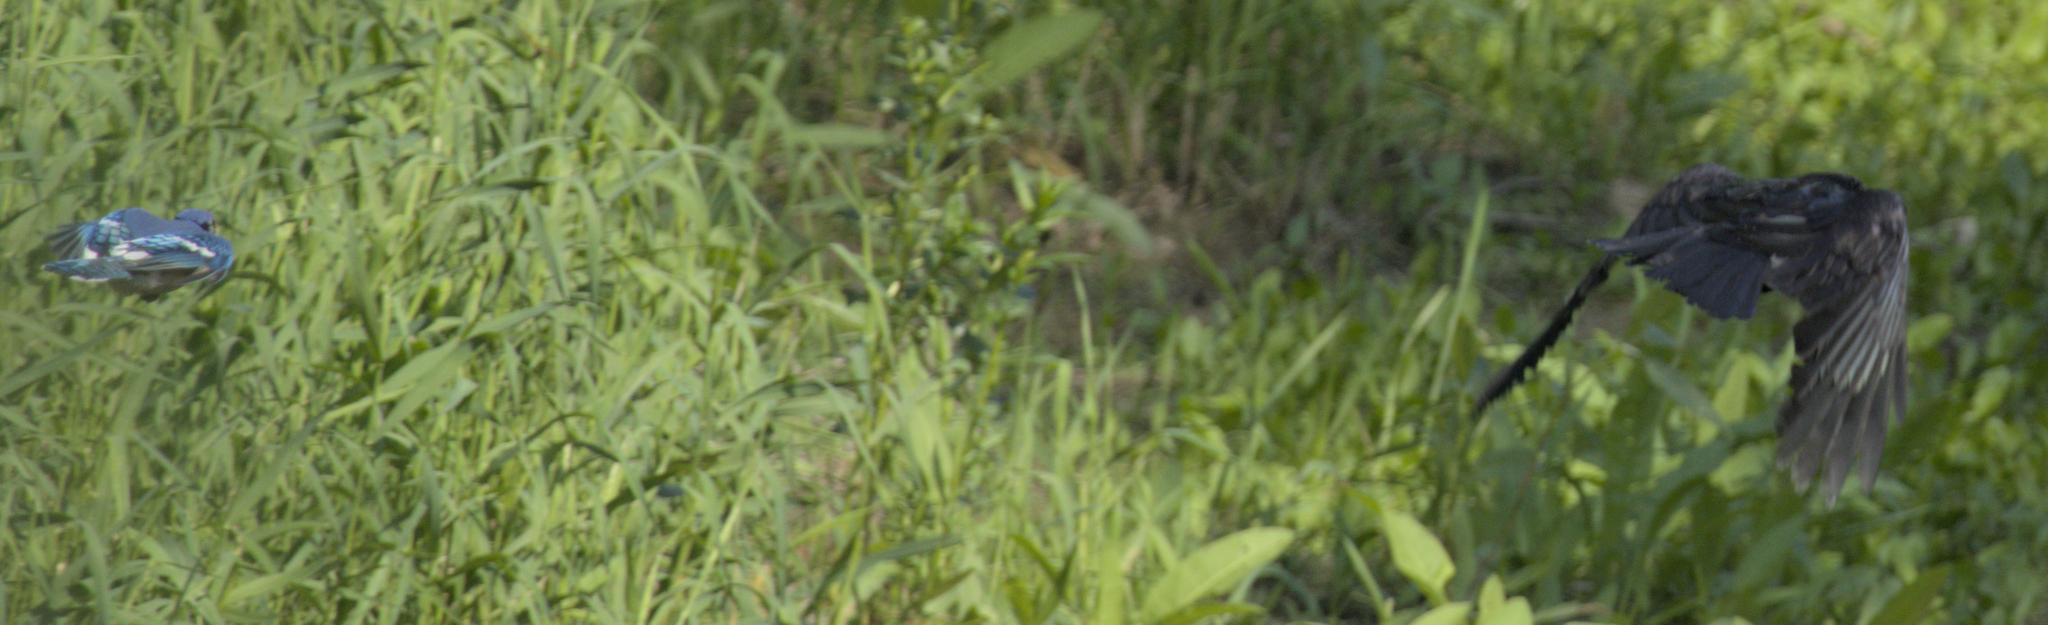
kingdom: Animalia
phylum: Chordata
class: Aves
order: Passeriformes
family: Corvidae
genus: Cyanocitta
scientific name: Cyanocitta cristata
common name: Blue jay
